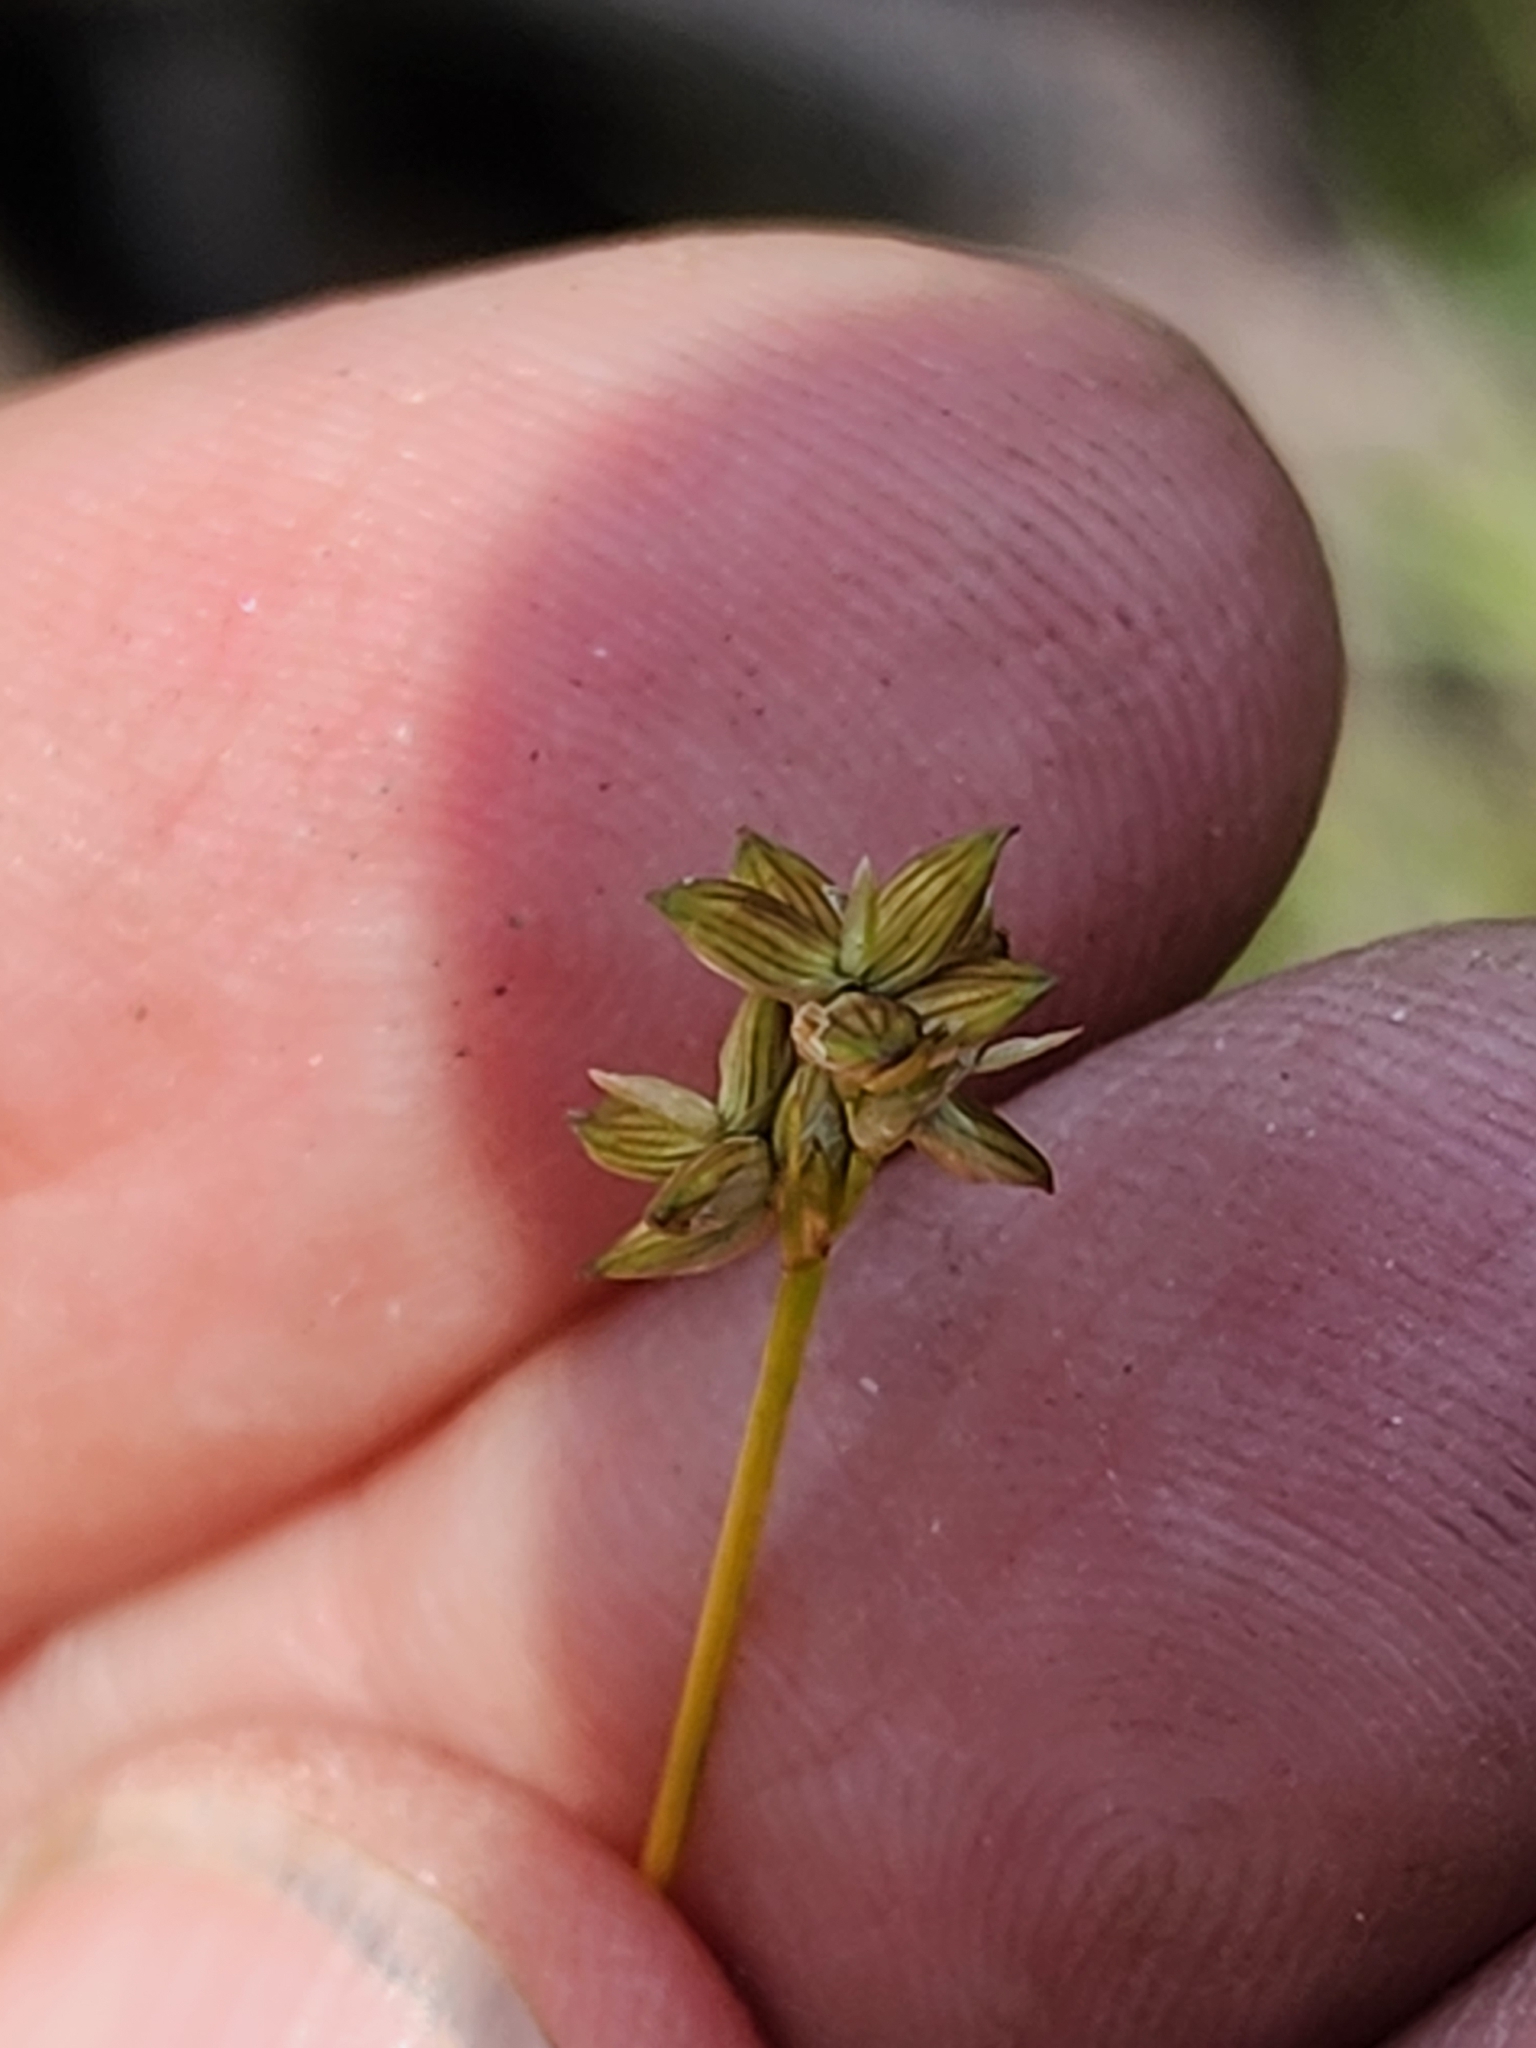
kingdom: Plantae
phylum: Tracheophyta
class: Liliopsida
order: Poales
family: Cyperaceae
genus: Carex
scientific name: Carex tenuiflora
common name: Sparse-flowered sedge
